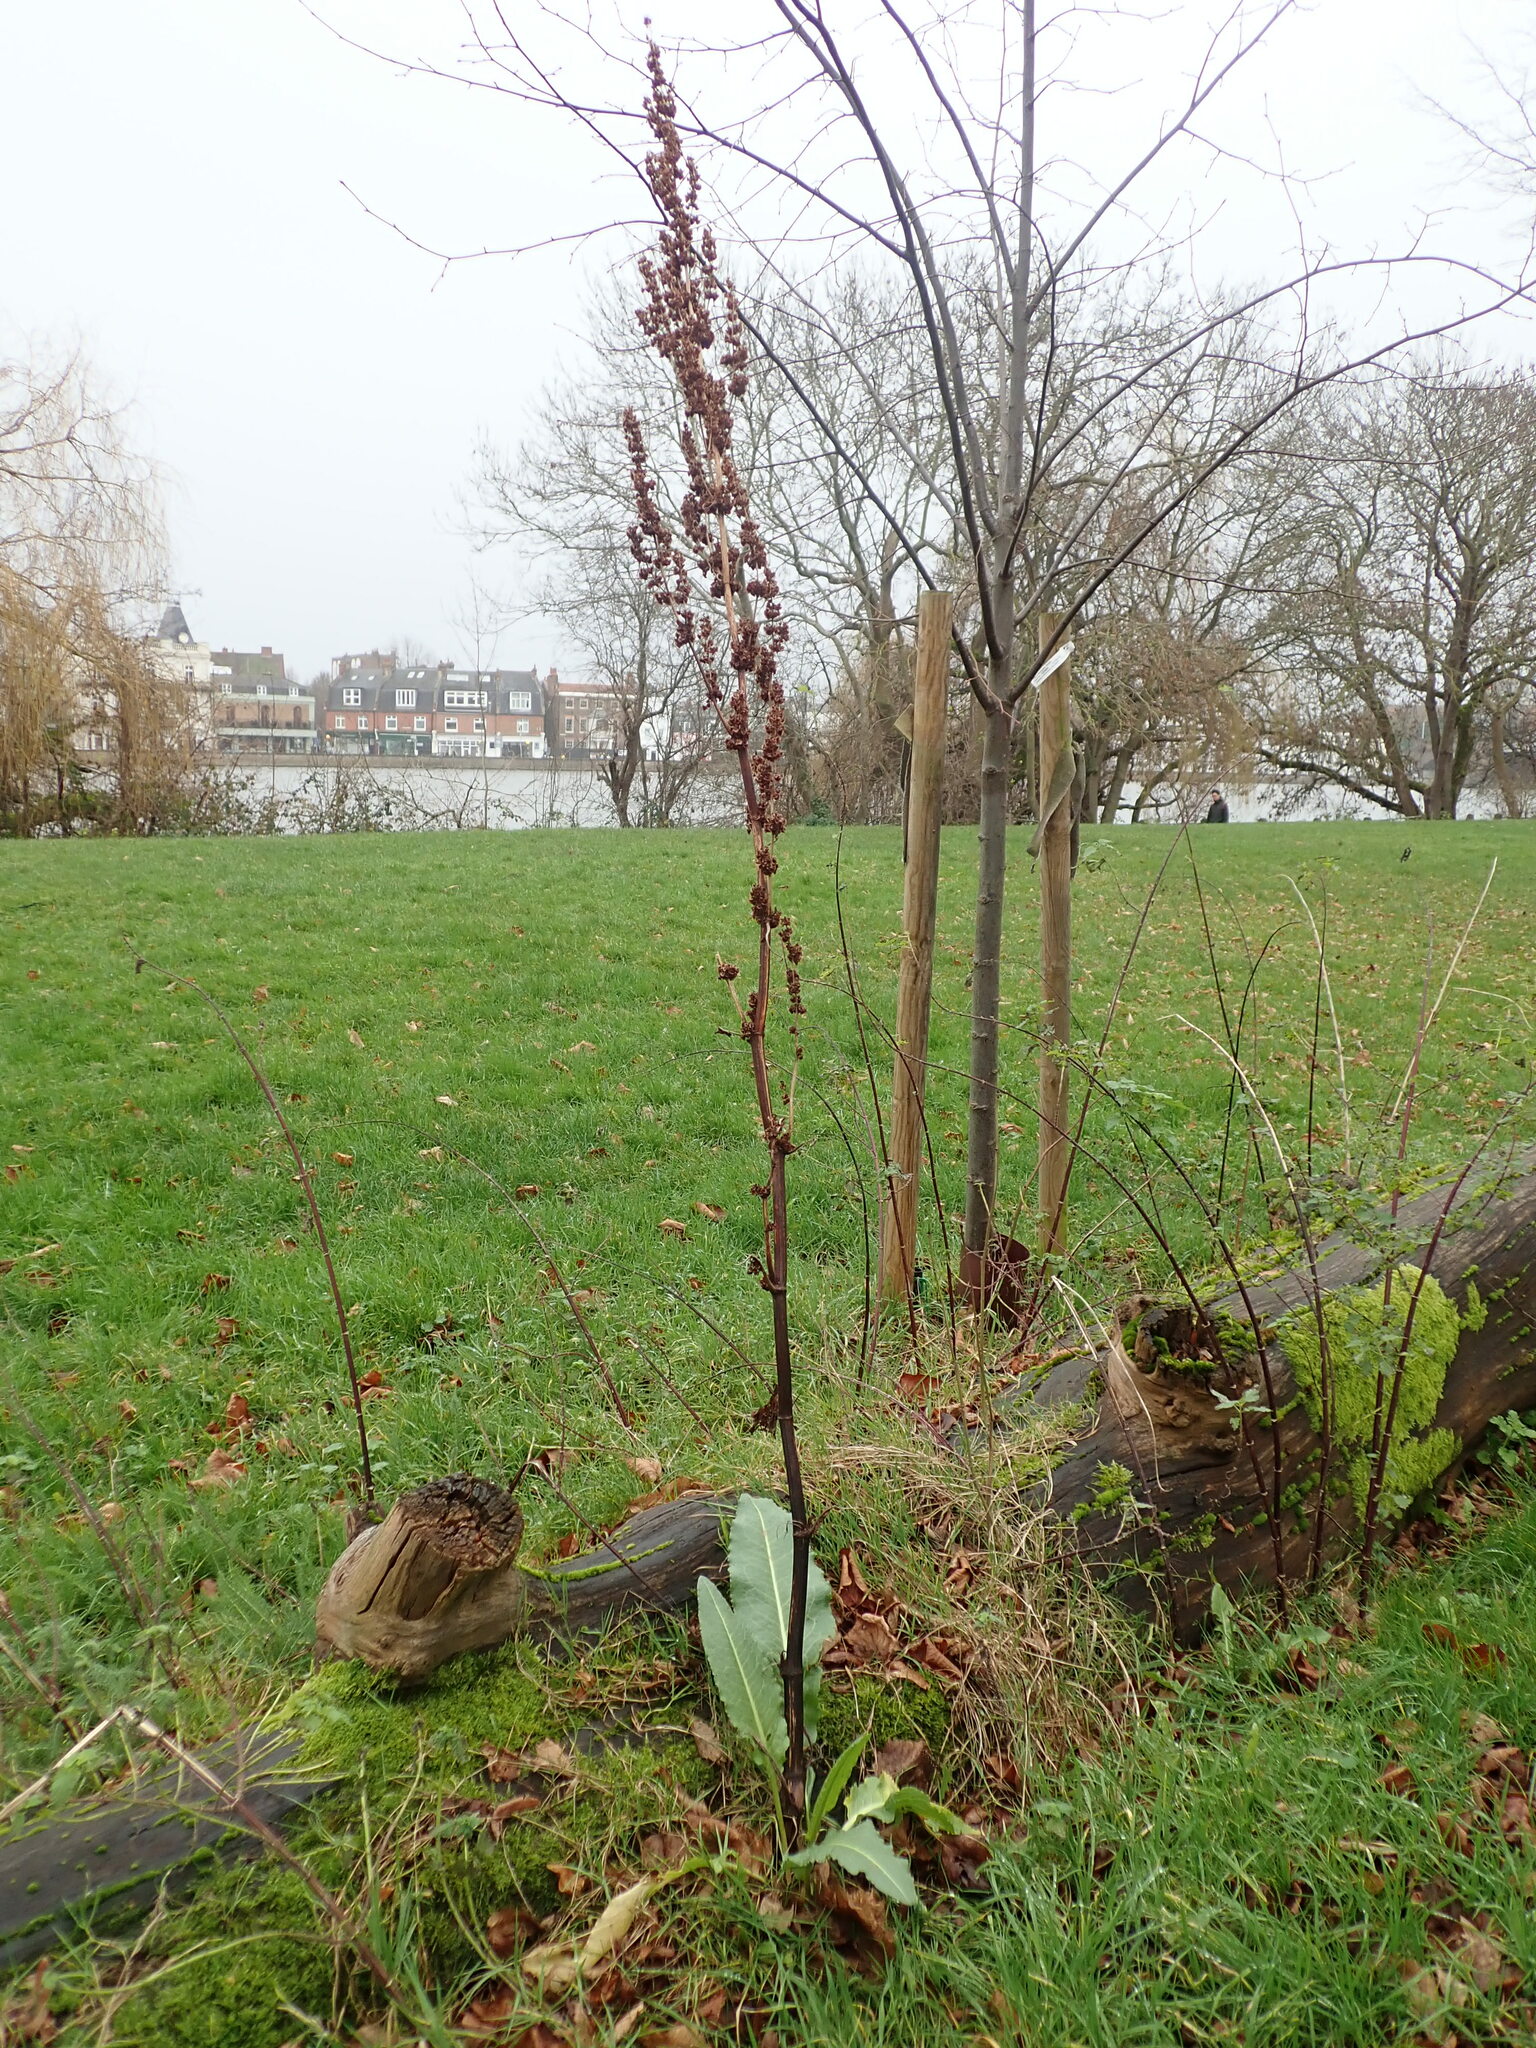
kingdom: Plantae
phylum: Tracheophyta
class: Magnoliopsida
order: Caryophyllales
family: Polygonaceae
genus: Rumex
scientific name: Rumex cristatus
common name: Greek dock
